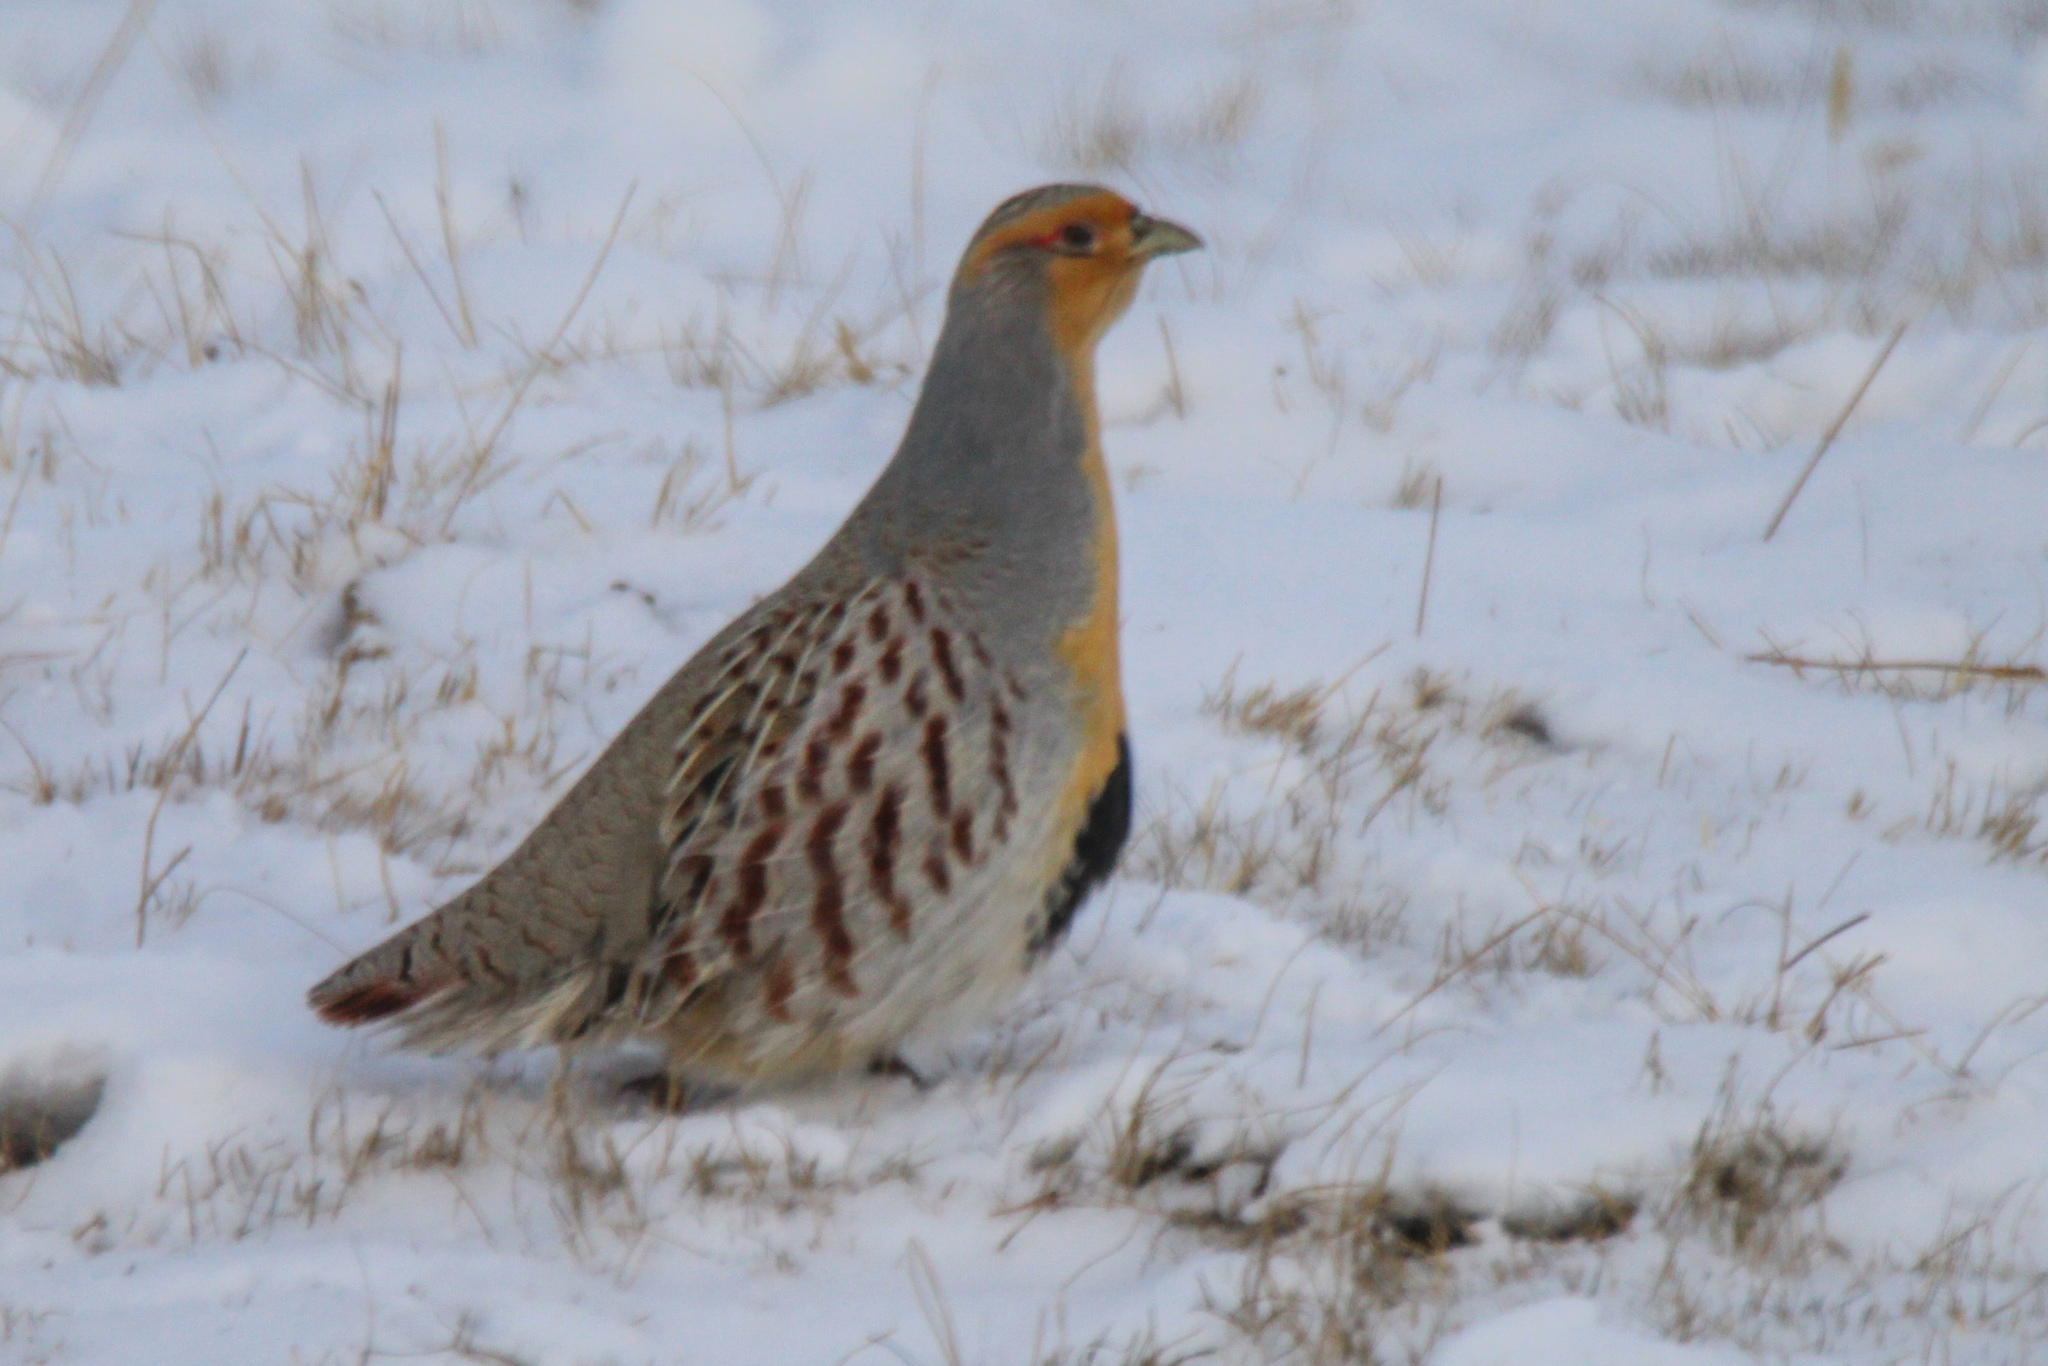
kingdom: Animalia
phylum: Chordata
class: Aves
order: Galliformes
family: Phasianidae
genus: Perdix
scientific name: Perdix dauurica
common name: Daurian partridge
